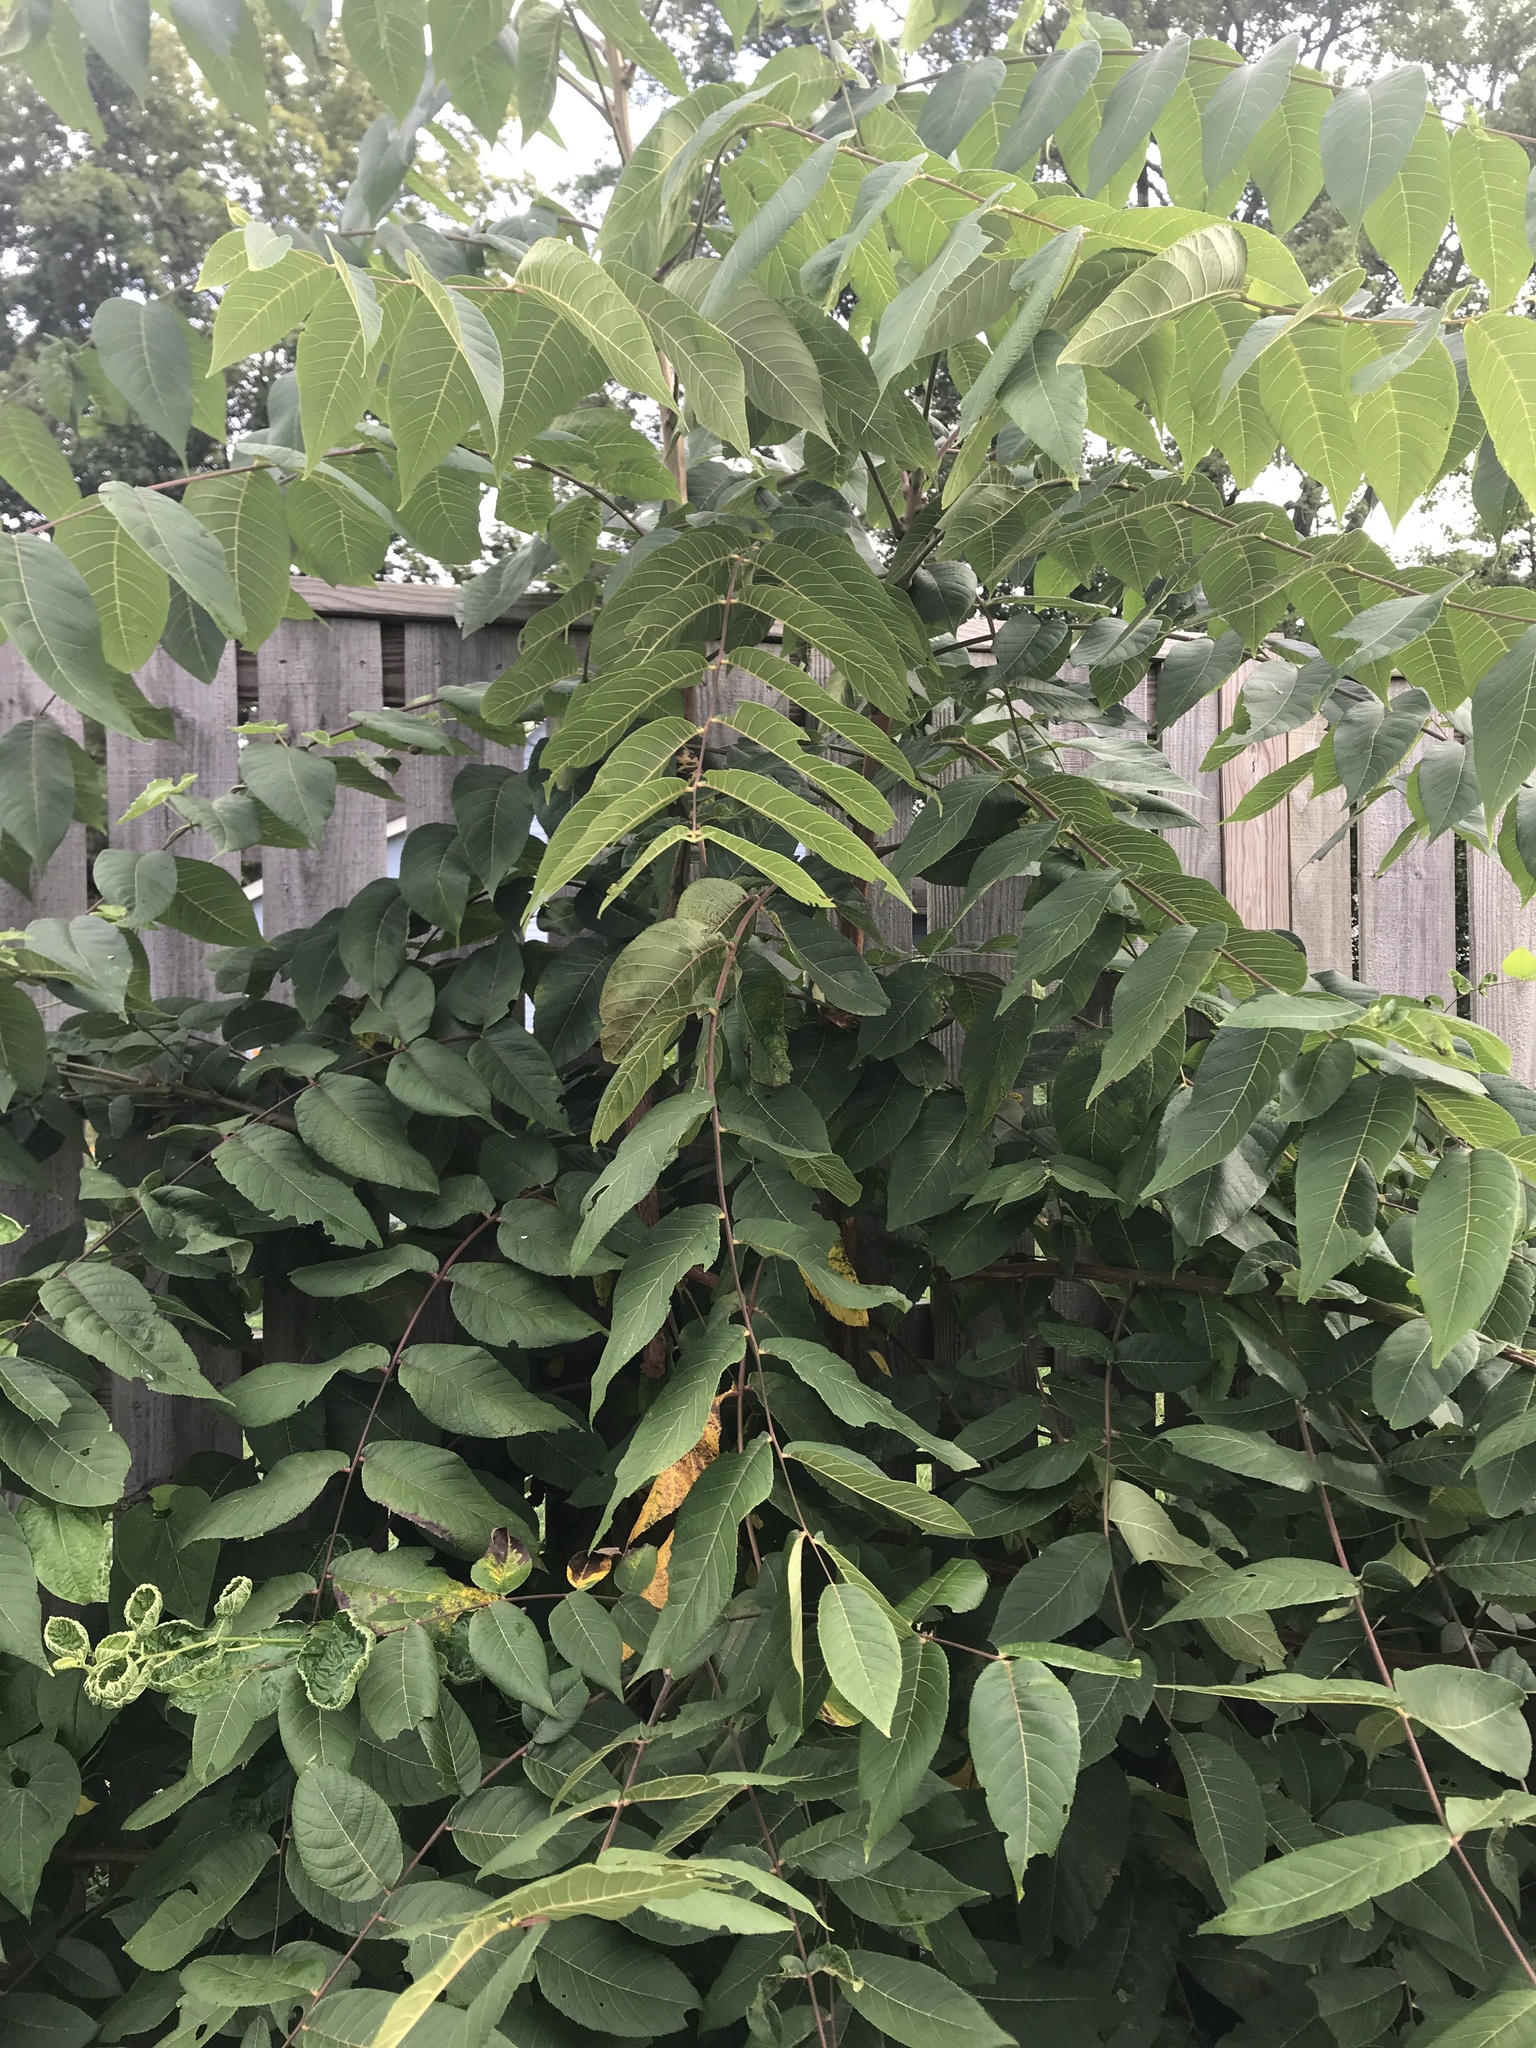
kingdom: Plantae
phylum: Tracheophyta
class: Magnoliopsida
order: Sapindales
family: Simaroubaceae
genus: Ailanthus
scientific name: Ailanthus altissima
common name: Tree-of-heaven
